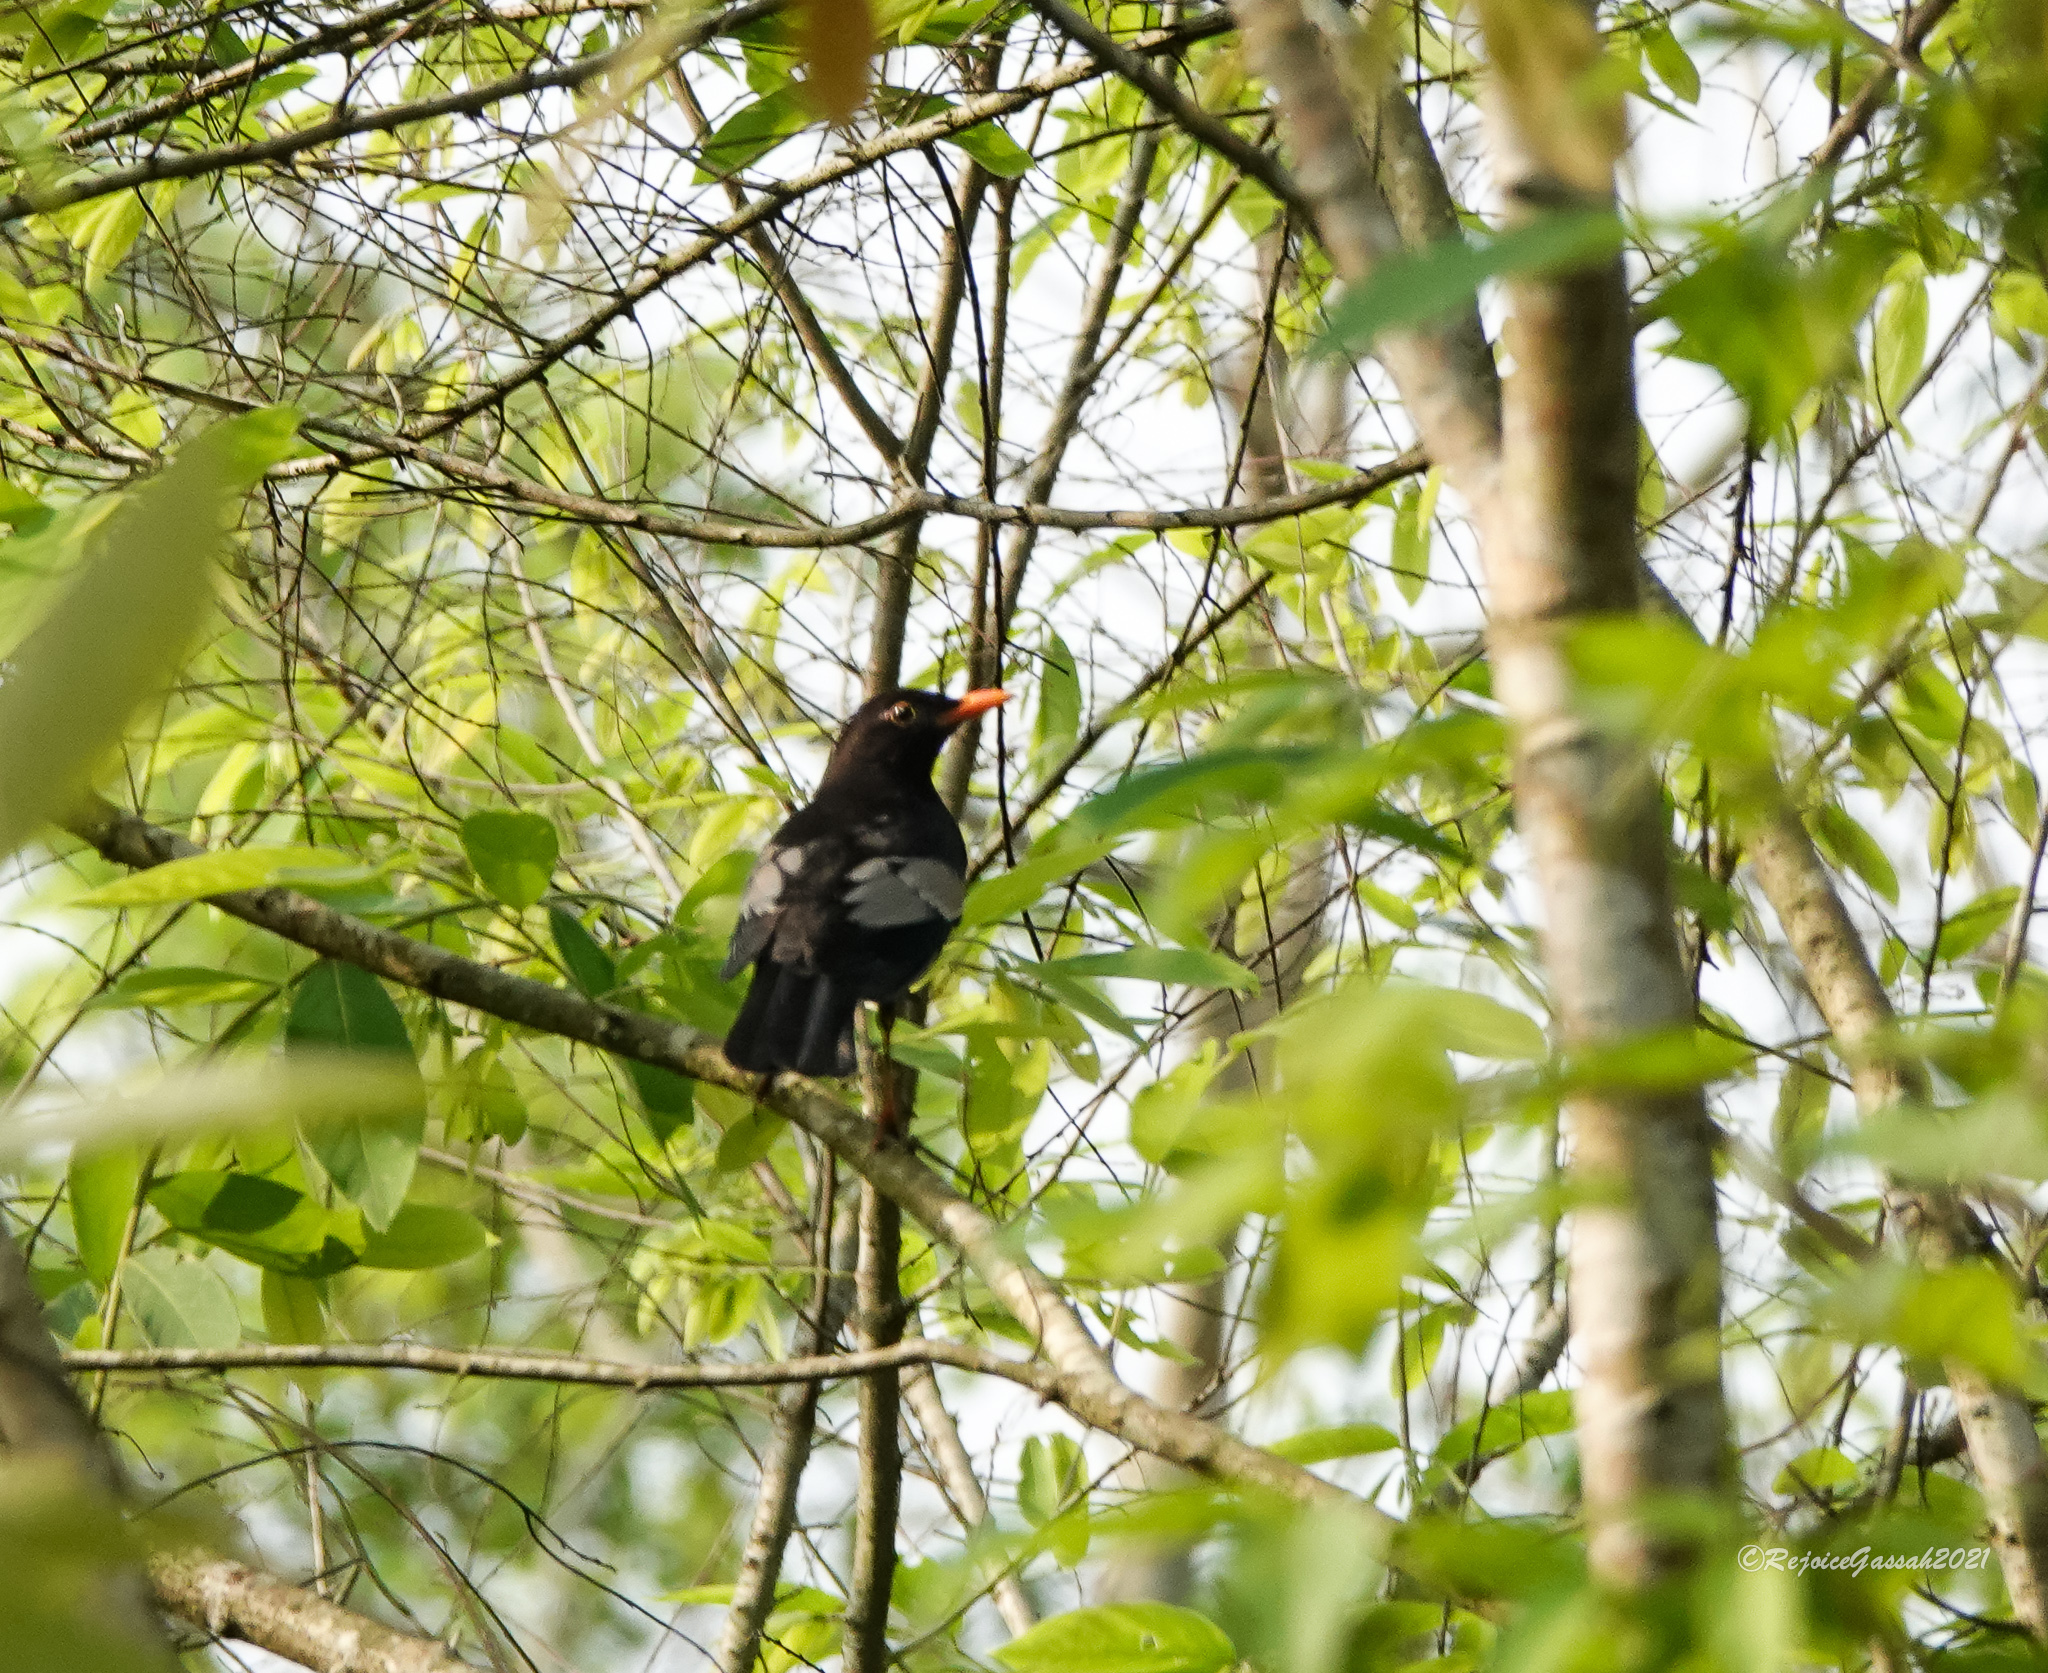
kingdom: Animalia
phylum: Chordata
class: Aves
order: Passeriformes
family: Turdidae
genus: Turdus
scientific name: Turdus boulboul
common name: Grey-winged blackbird
